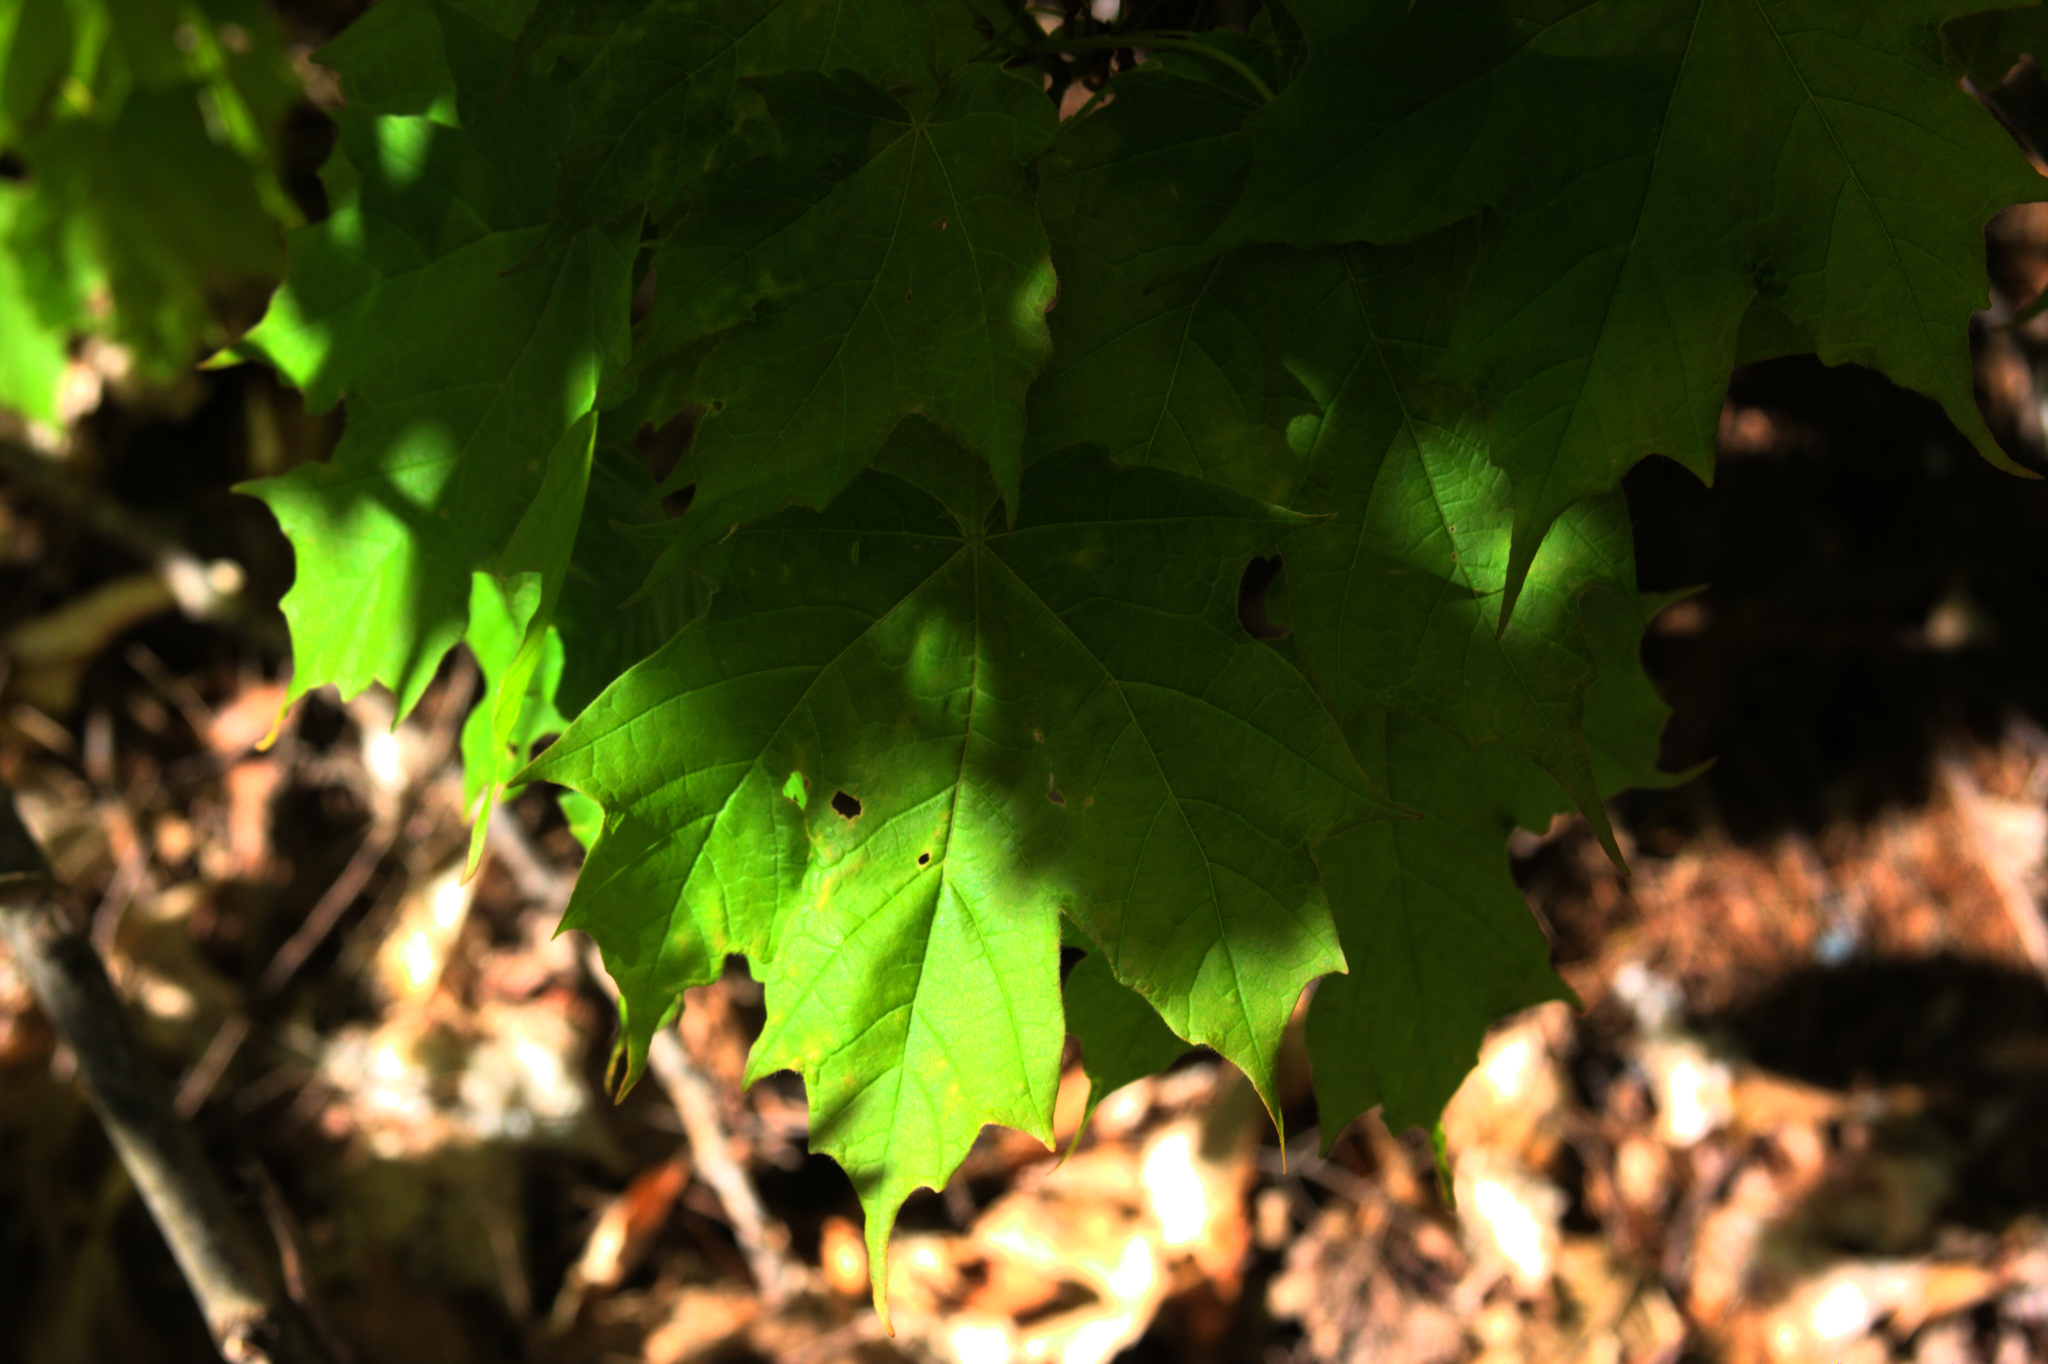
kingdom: Plantae
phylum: Tracheophyta
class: Magnoliopsida
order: Sapindales
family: Sapindaceae
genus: Acer
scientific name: Acer saccharum
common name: Sugar maple
